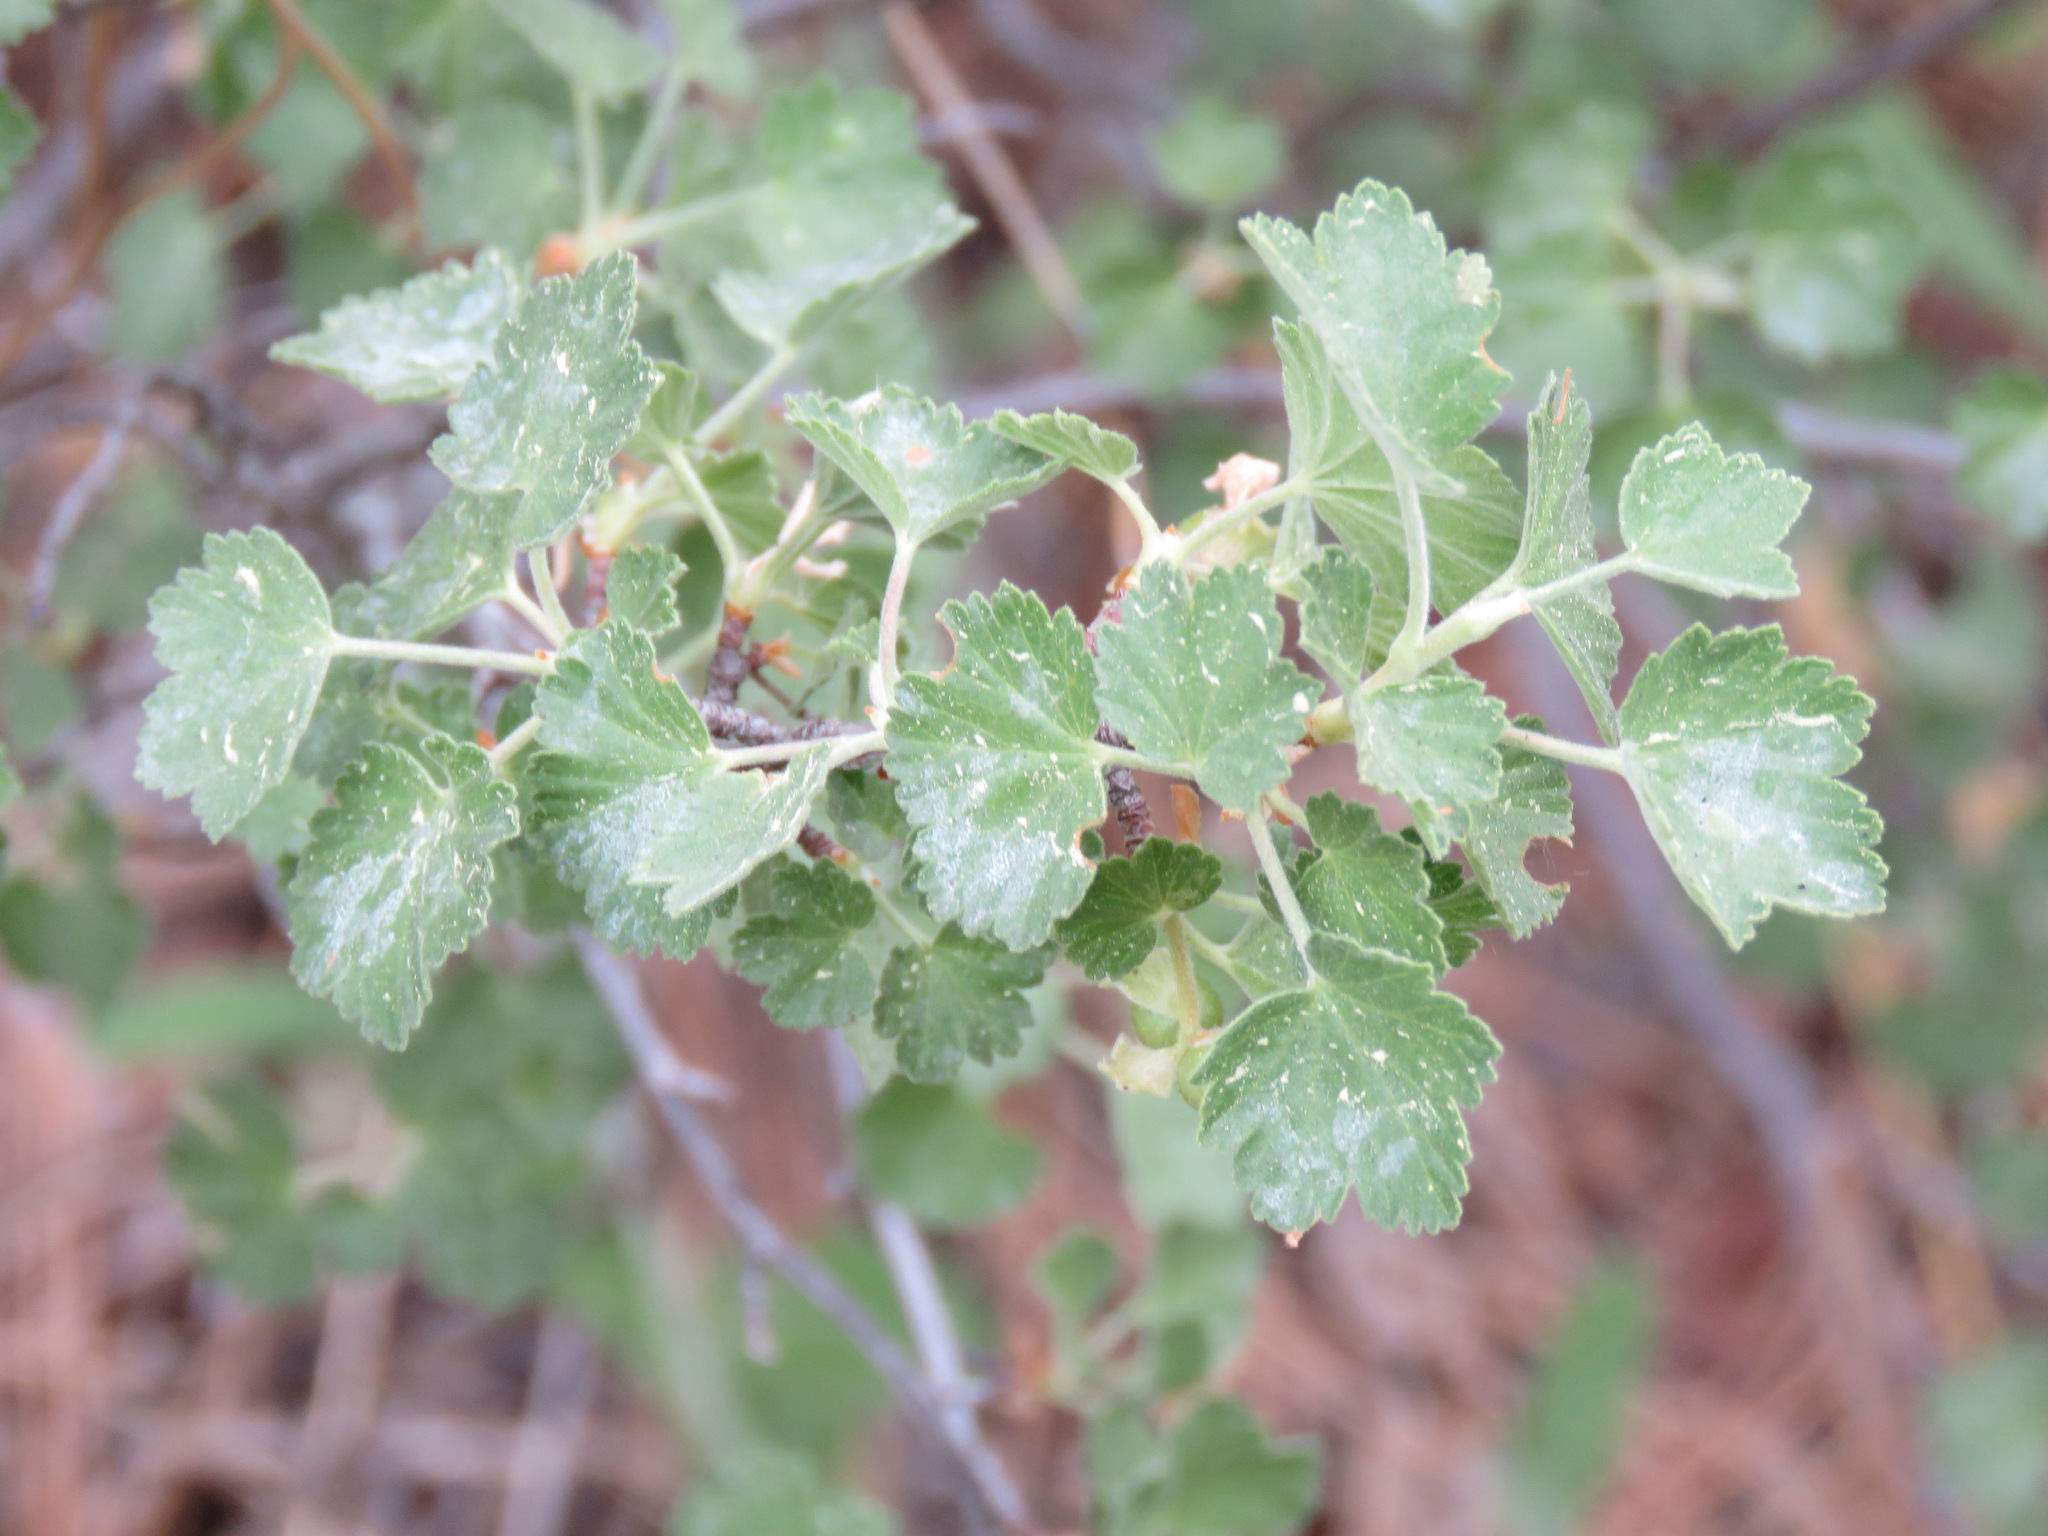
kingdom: Plantae
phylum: Tracheophyta
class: Magnoliopsida
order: Saxifragales
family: Grossulariaceae
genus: Ribes
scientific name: Ribes cereum
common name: Wax currant
